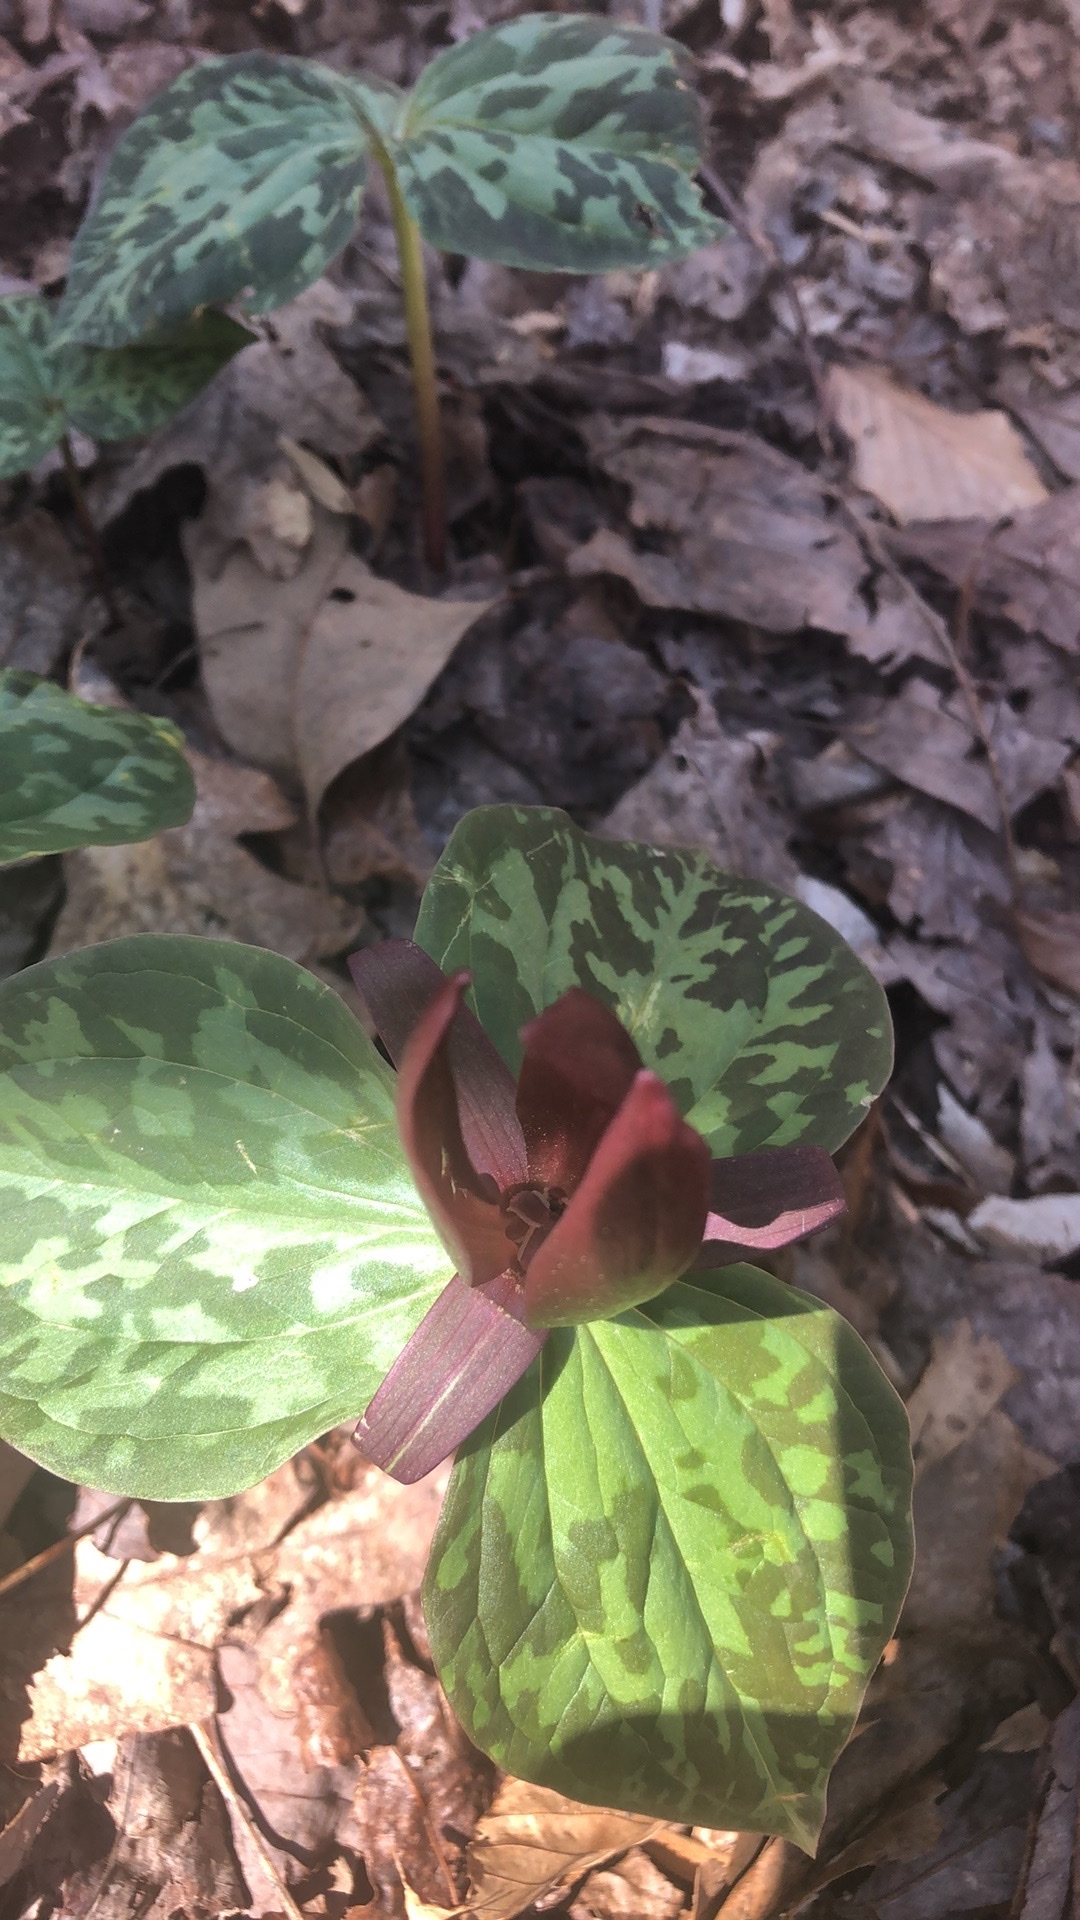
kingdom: Plantae
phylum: Tracheophyta
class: Liliopsida
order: Liliales
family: Melanthiaceae
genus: Trillium
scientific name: Trillium cuneatum
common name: Cuneate trillium
